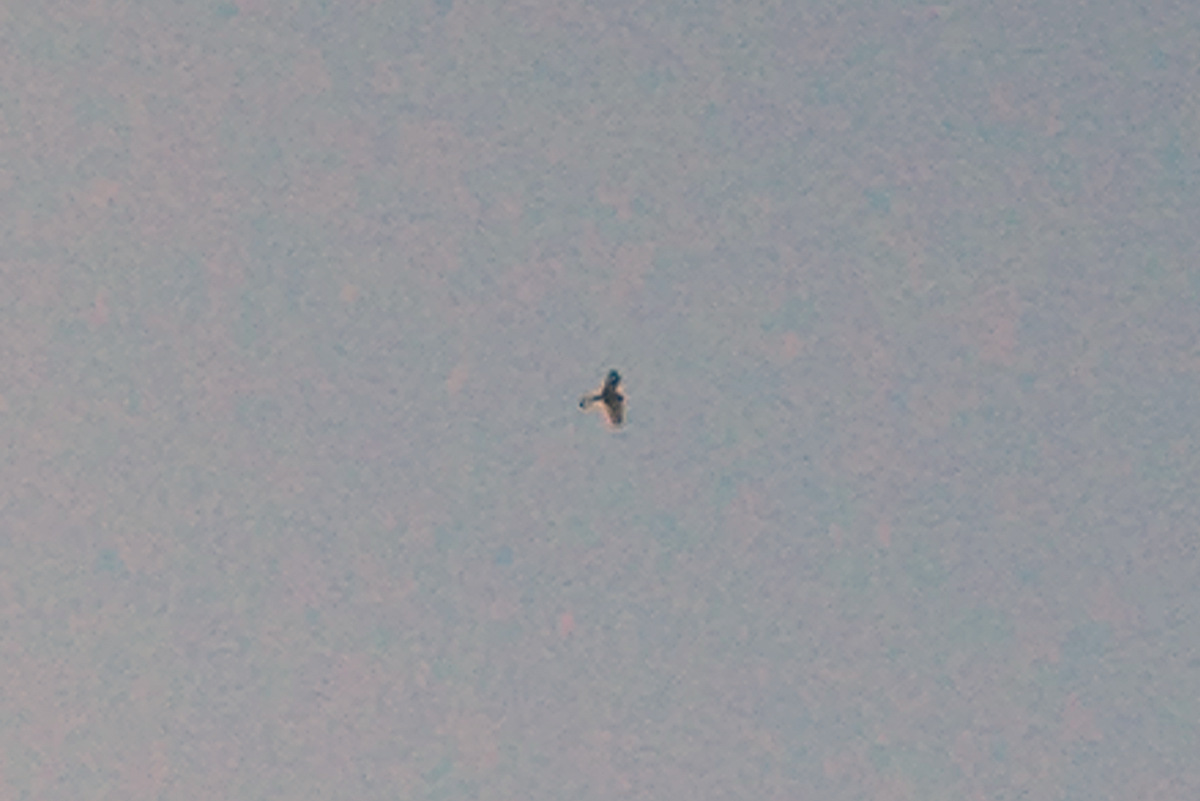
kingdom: Animalia
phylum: Chordata
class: Aves
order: Falconiformes
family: Falconidae
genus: Falco
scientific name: Falco tinnunculus
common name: Common kestrel
